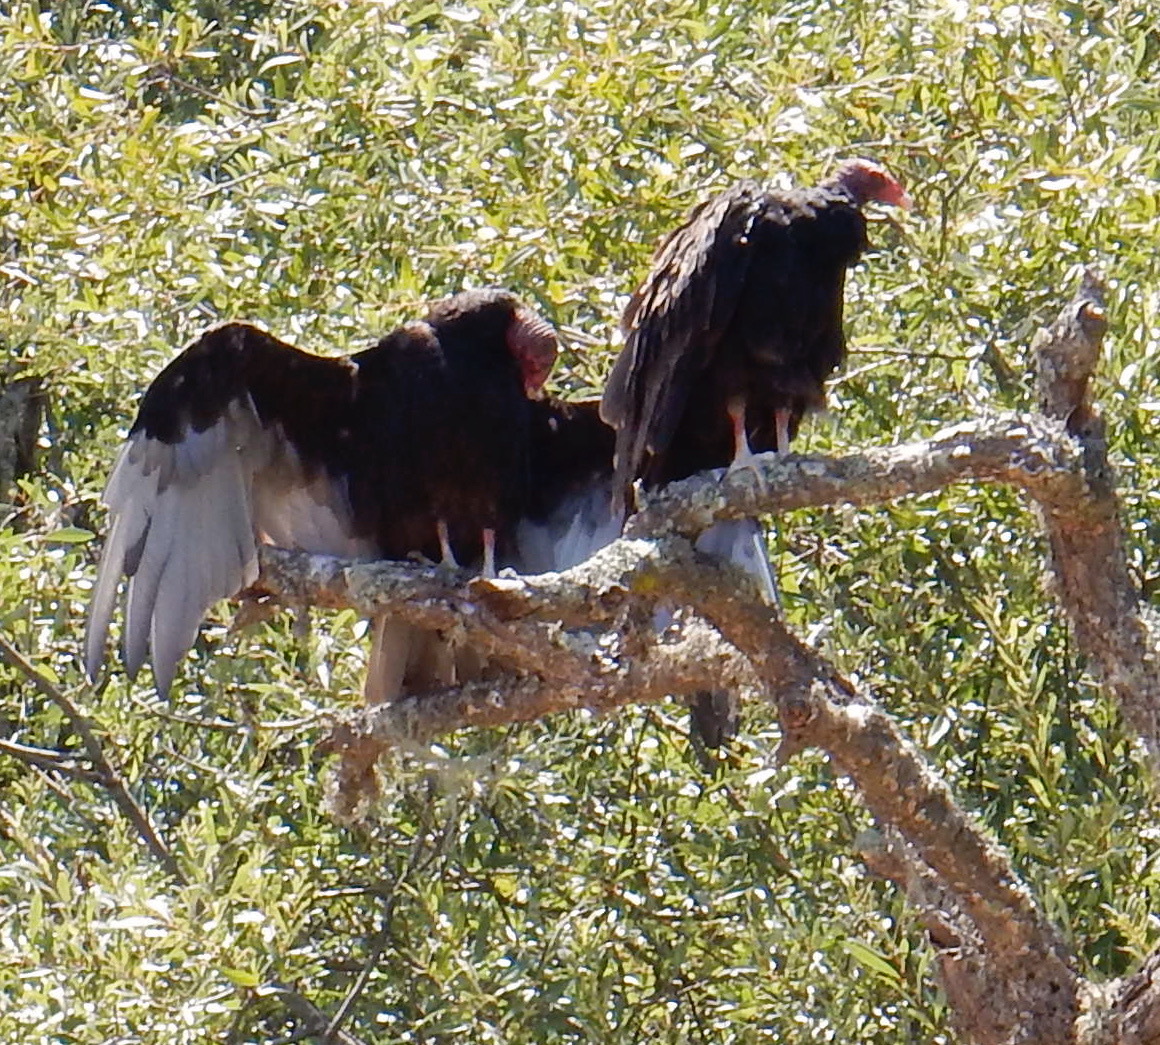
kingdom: Animalia
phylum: Chordata
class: Aves
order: Accipitriformes
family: Cathartidae
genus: Cathartes
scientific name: Cathartes aura
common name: Turkey vulture
